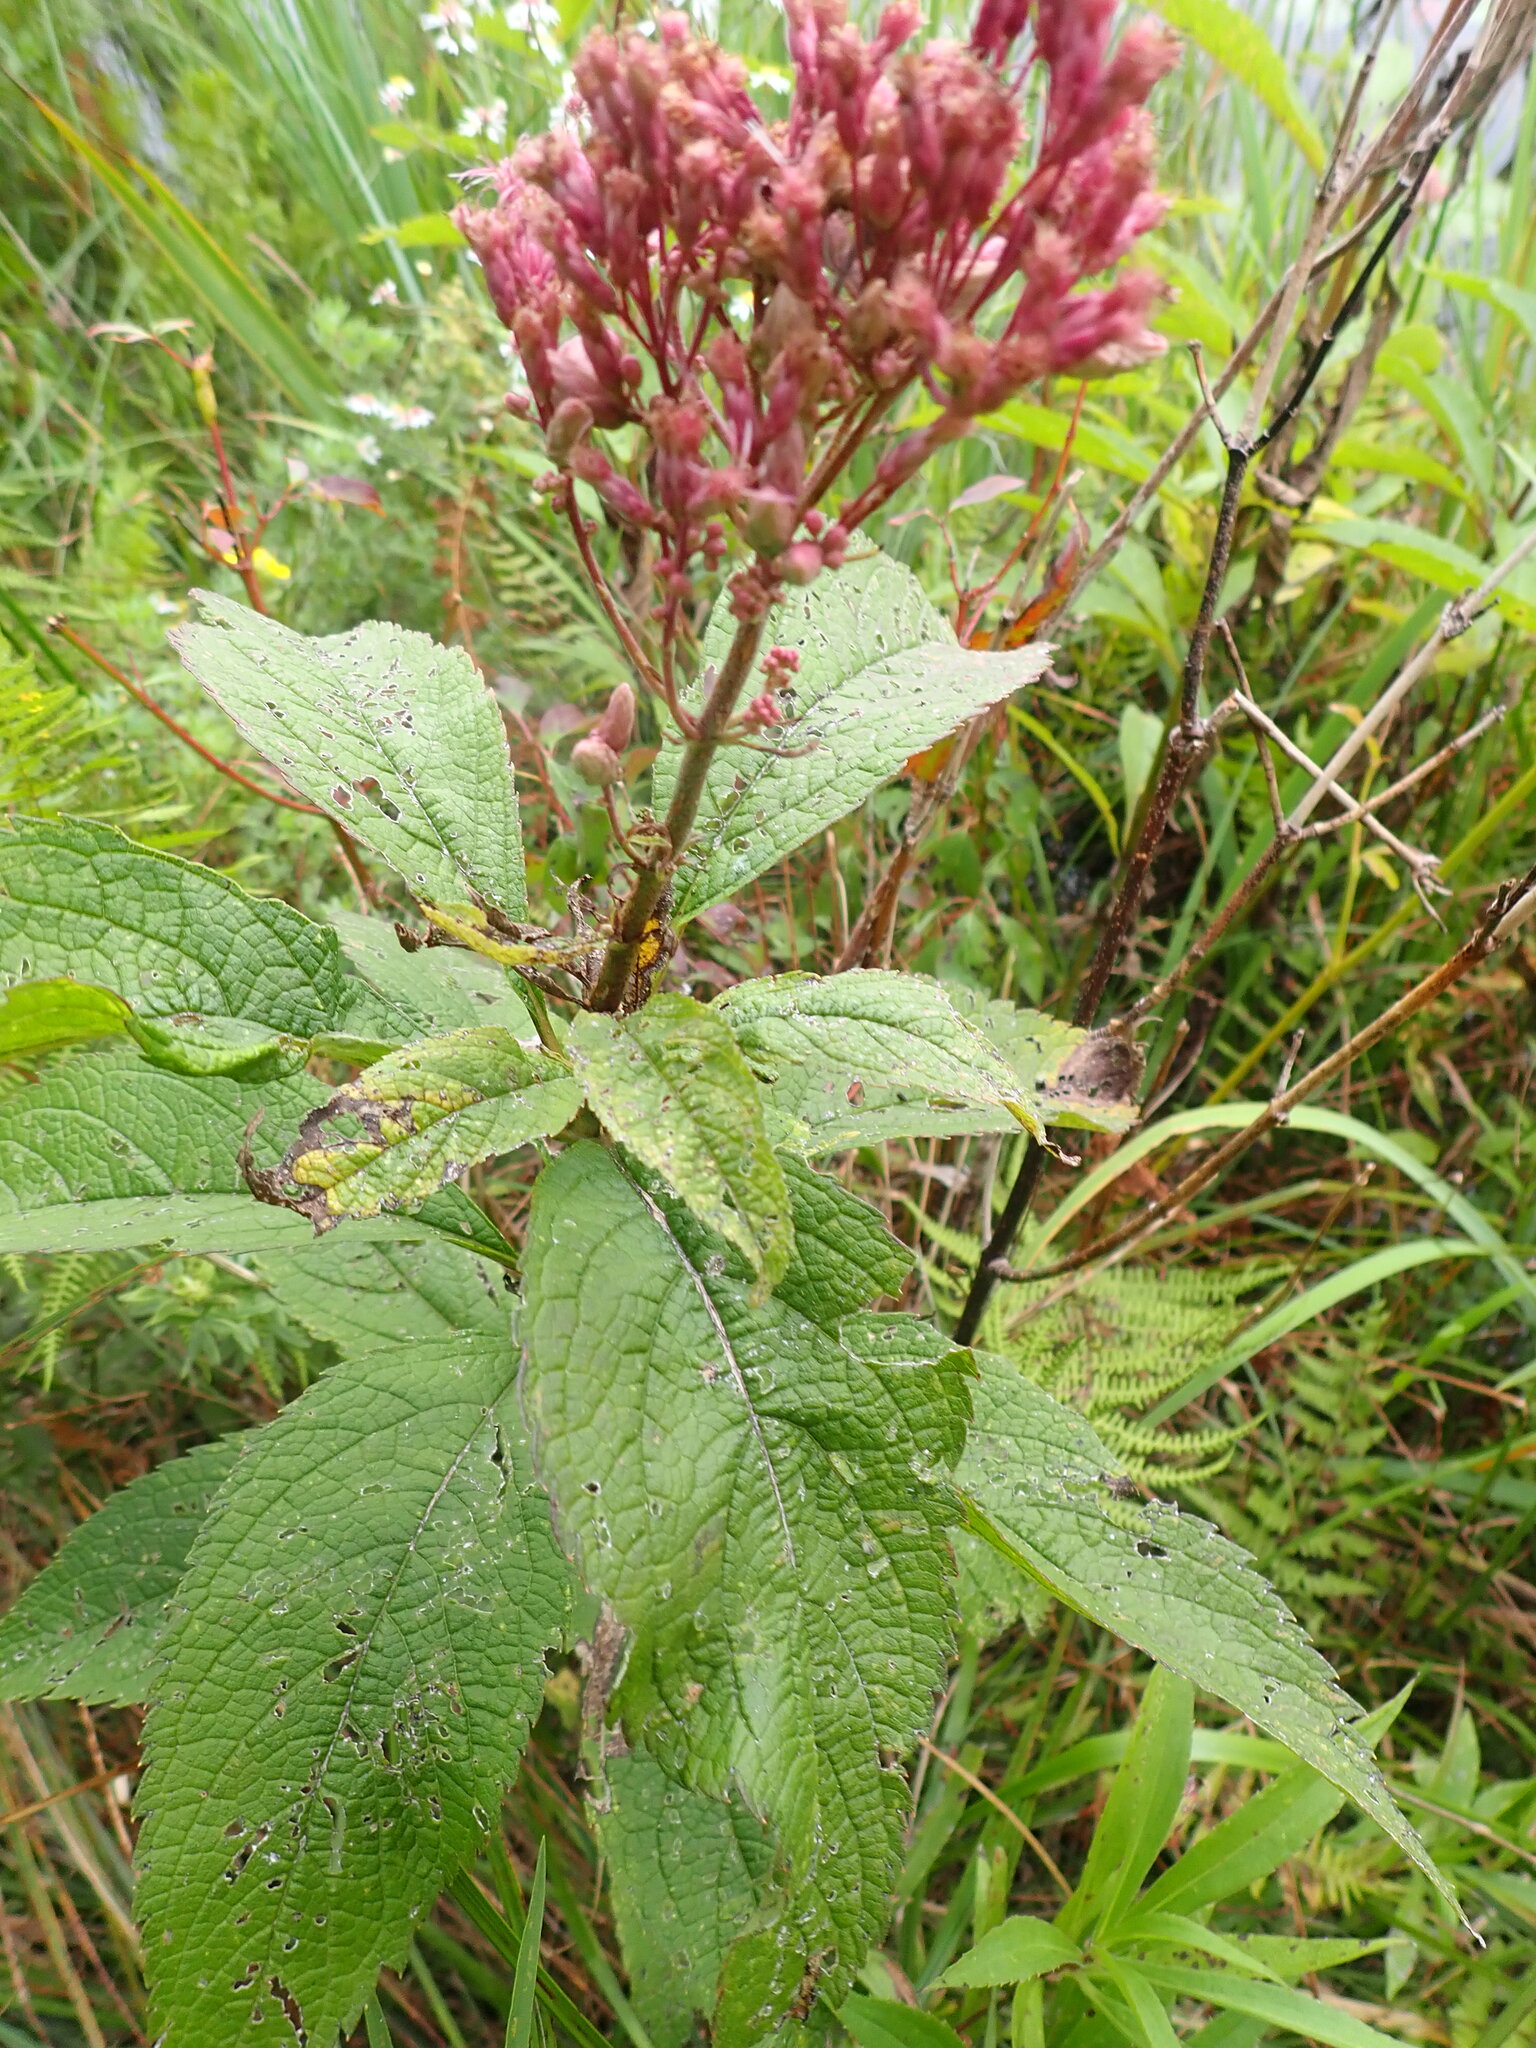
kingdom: Plantae
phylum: Tracheophyta
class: Magnoliopsida
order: Asterales
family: Asteraceae
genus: Eutrochium
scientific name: Eutrochium maculatum
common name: Spotted joe pye weed
